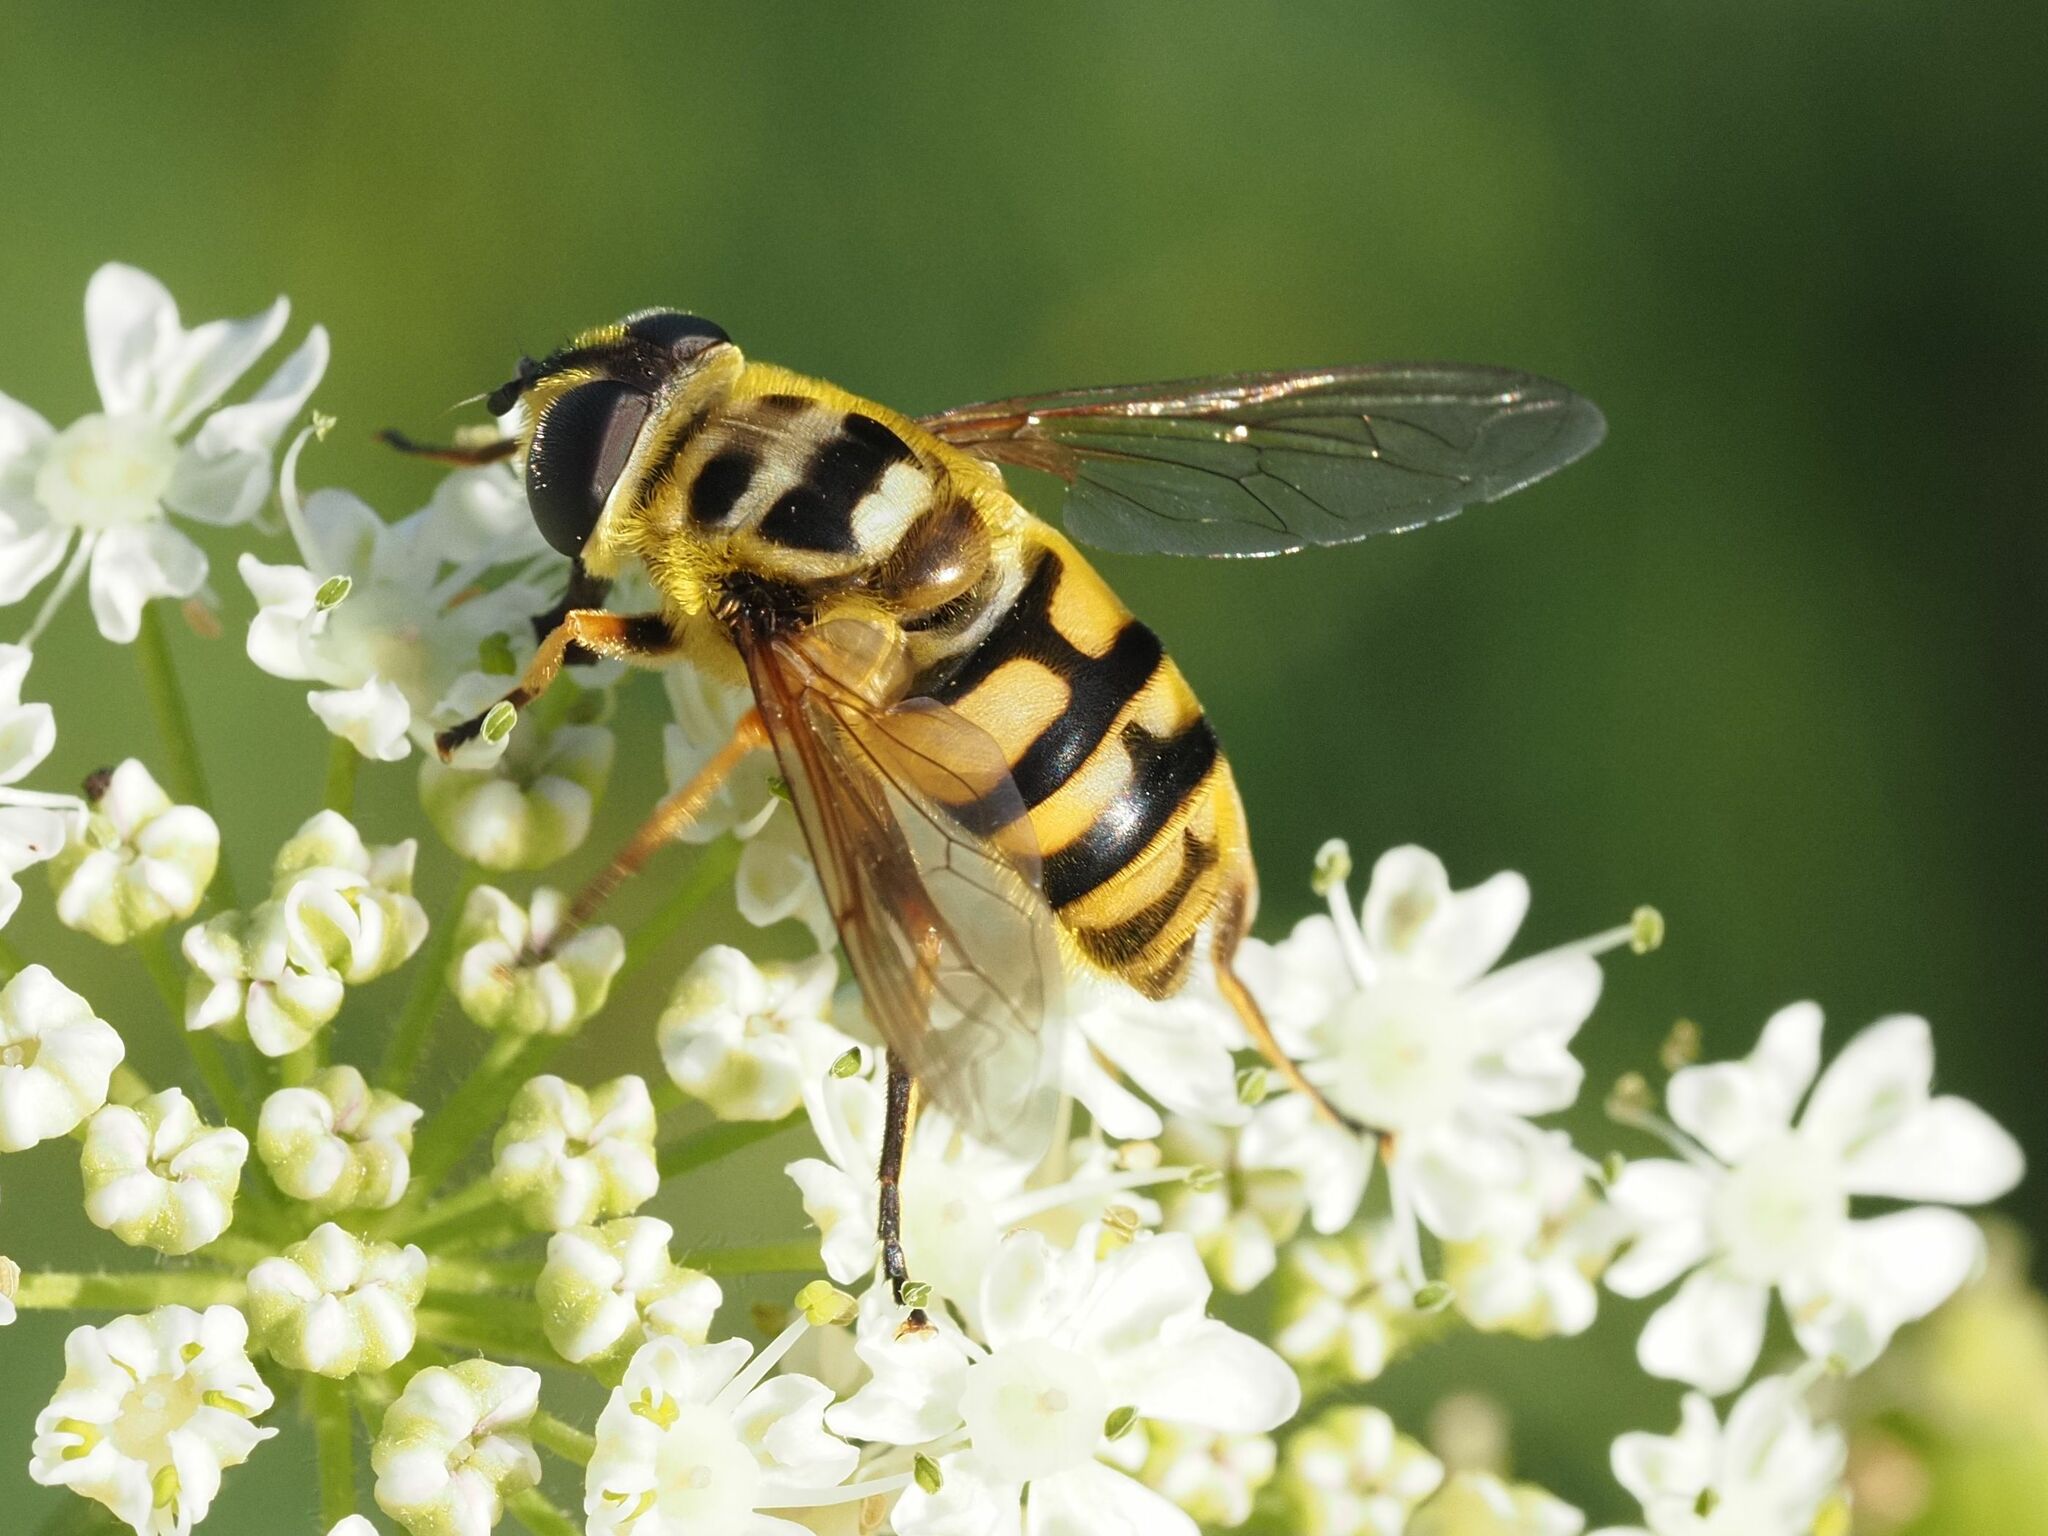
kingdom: Animalia
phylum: Arthropoda
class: Insecta
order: Diptera
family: Syrphidae
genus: Myathropa
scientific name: Myathropa florea
